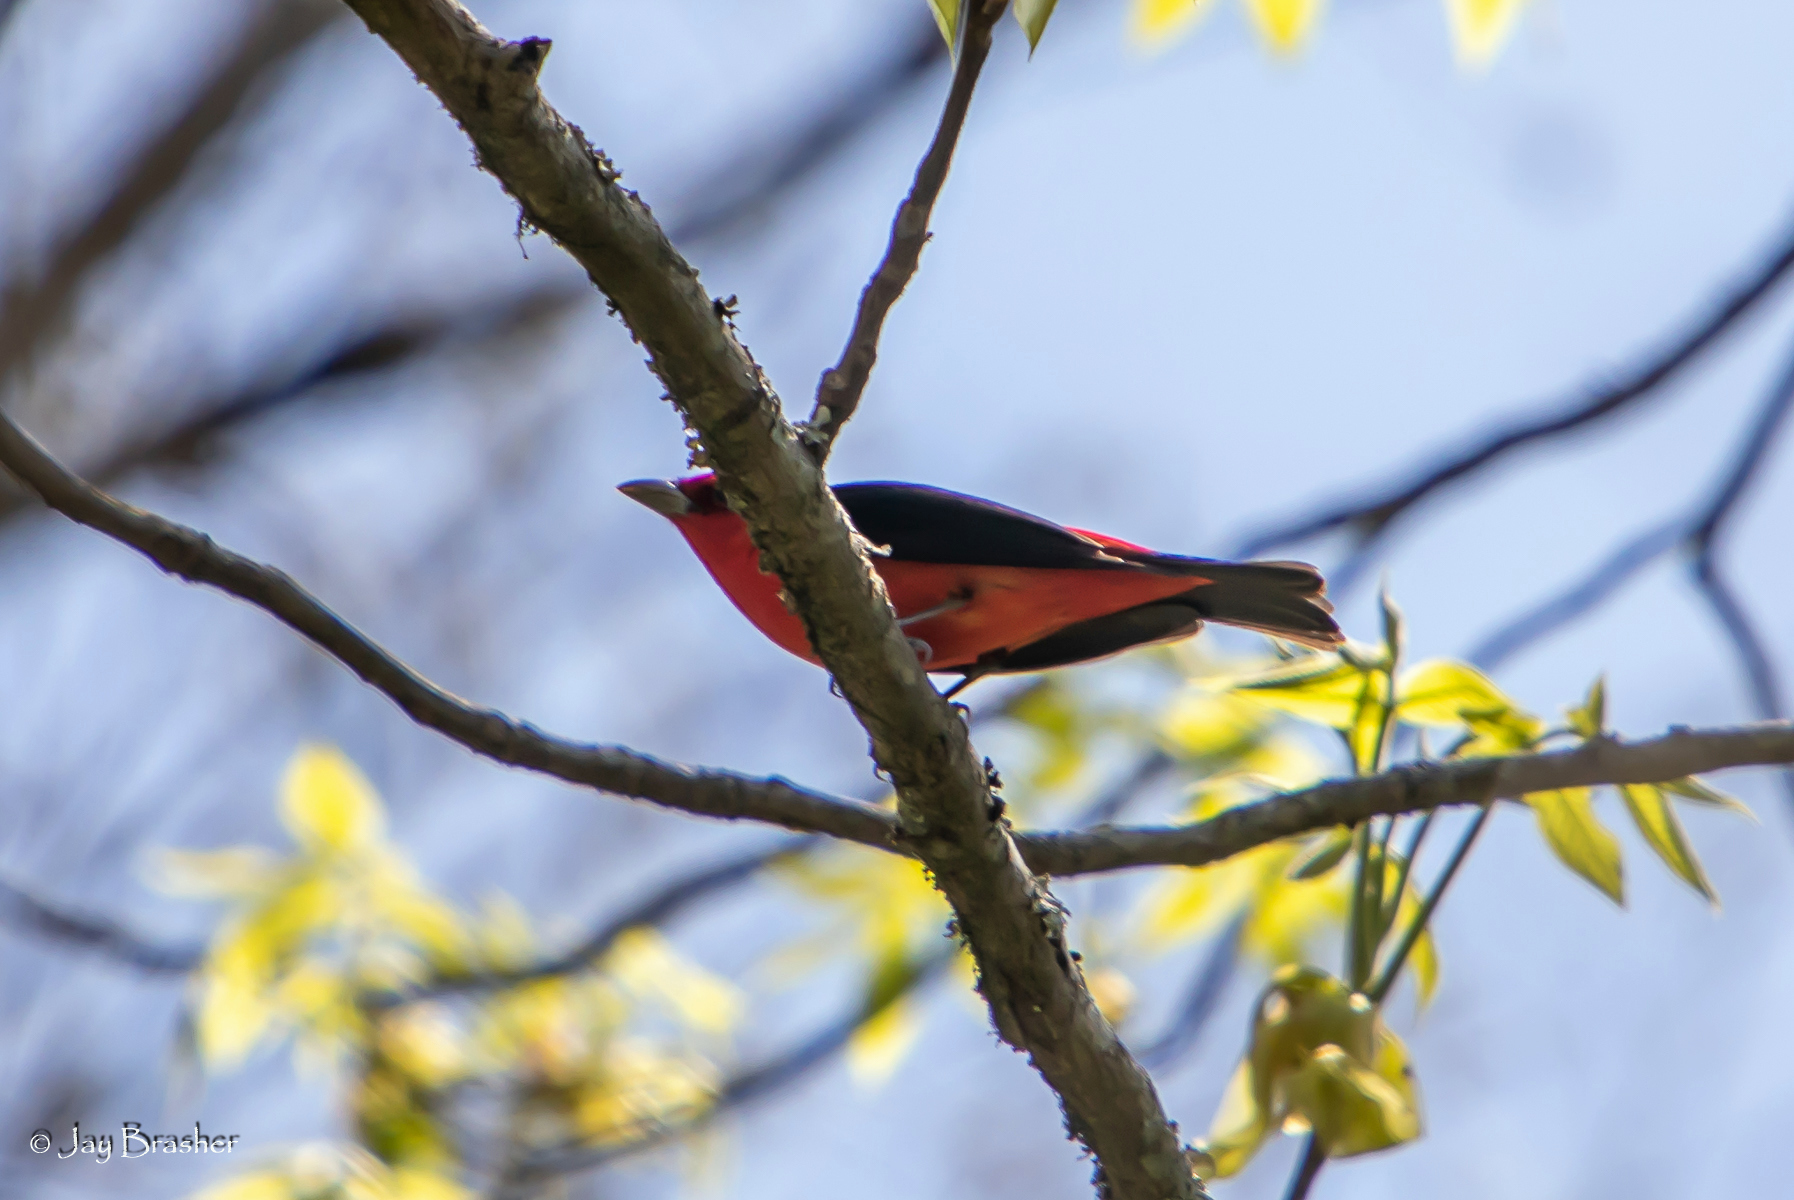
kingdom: Animalia
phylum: Chordata
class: Aves
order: Passeriformes
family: Cardinalidae
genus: Piranga
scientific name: Piranga olivacea
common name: Scarlet tanager
